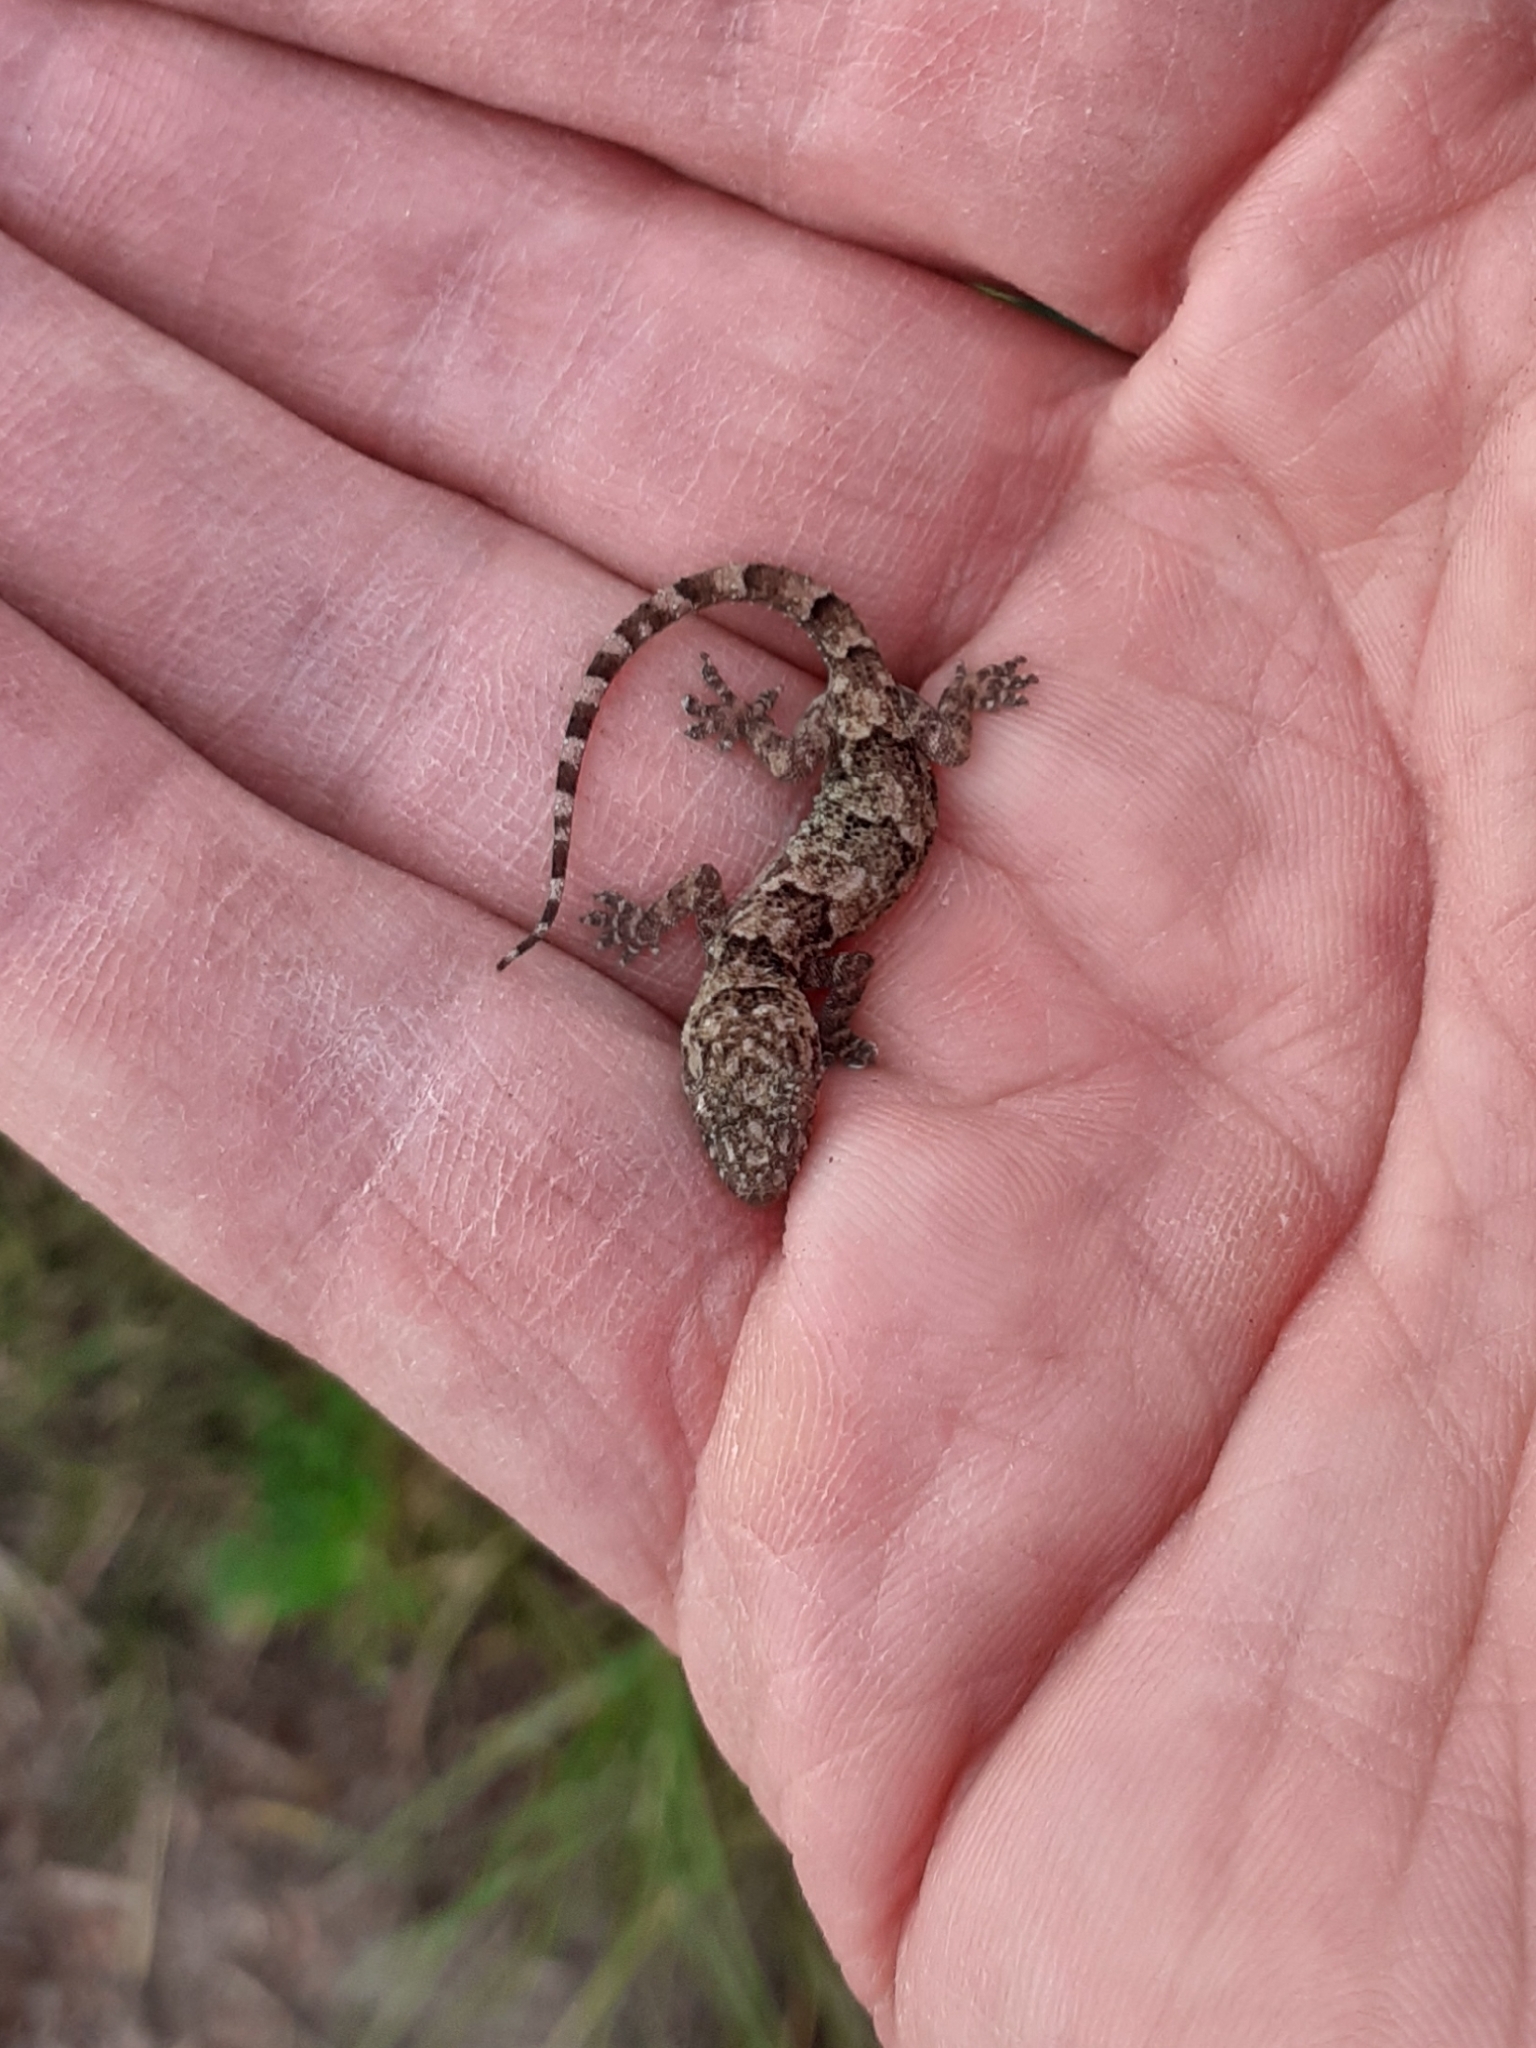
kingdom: Animalia
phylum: Chordata
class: Squamata
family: Gekkonidae
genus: Hemidactylus
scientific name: Hemidactylus mabouia
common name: House gecko
